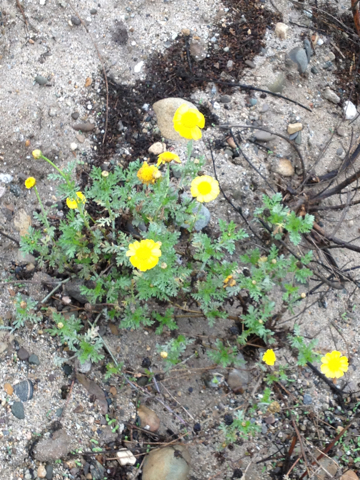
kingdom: Plantae
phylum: Tracheophyta
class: Magnoliopsida
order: Asterales
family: Asteraceae
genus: Glebionis
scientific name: Glebionis coronaria
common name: Crowndaisy
